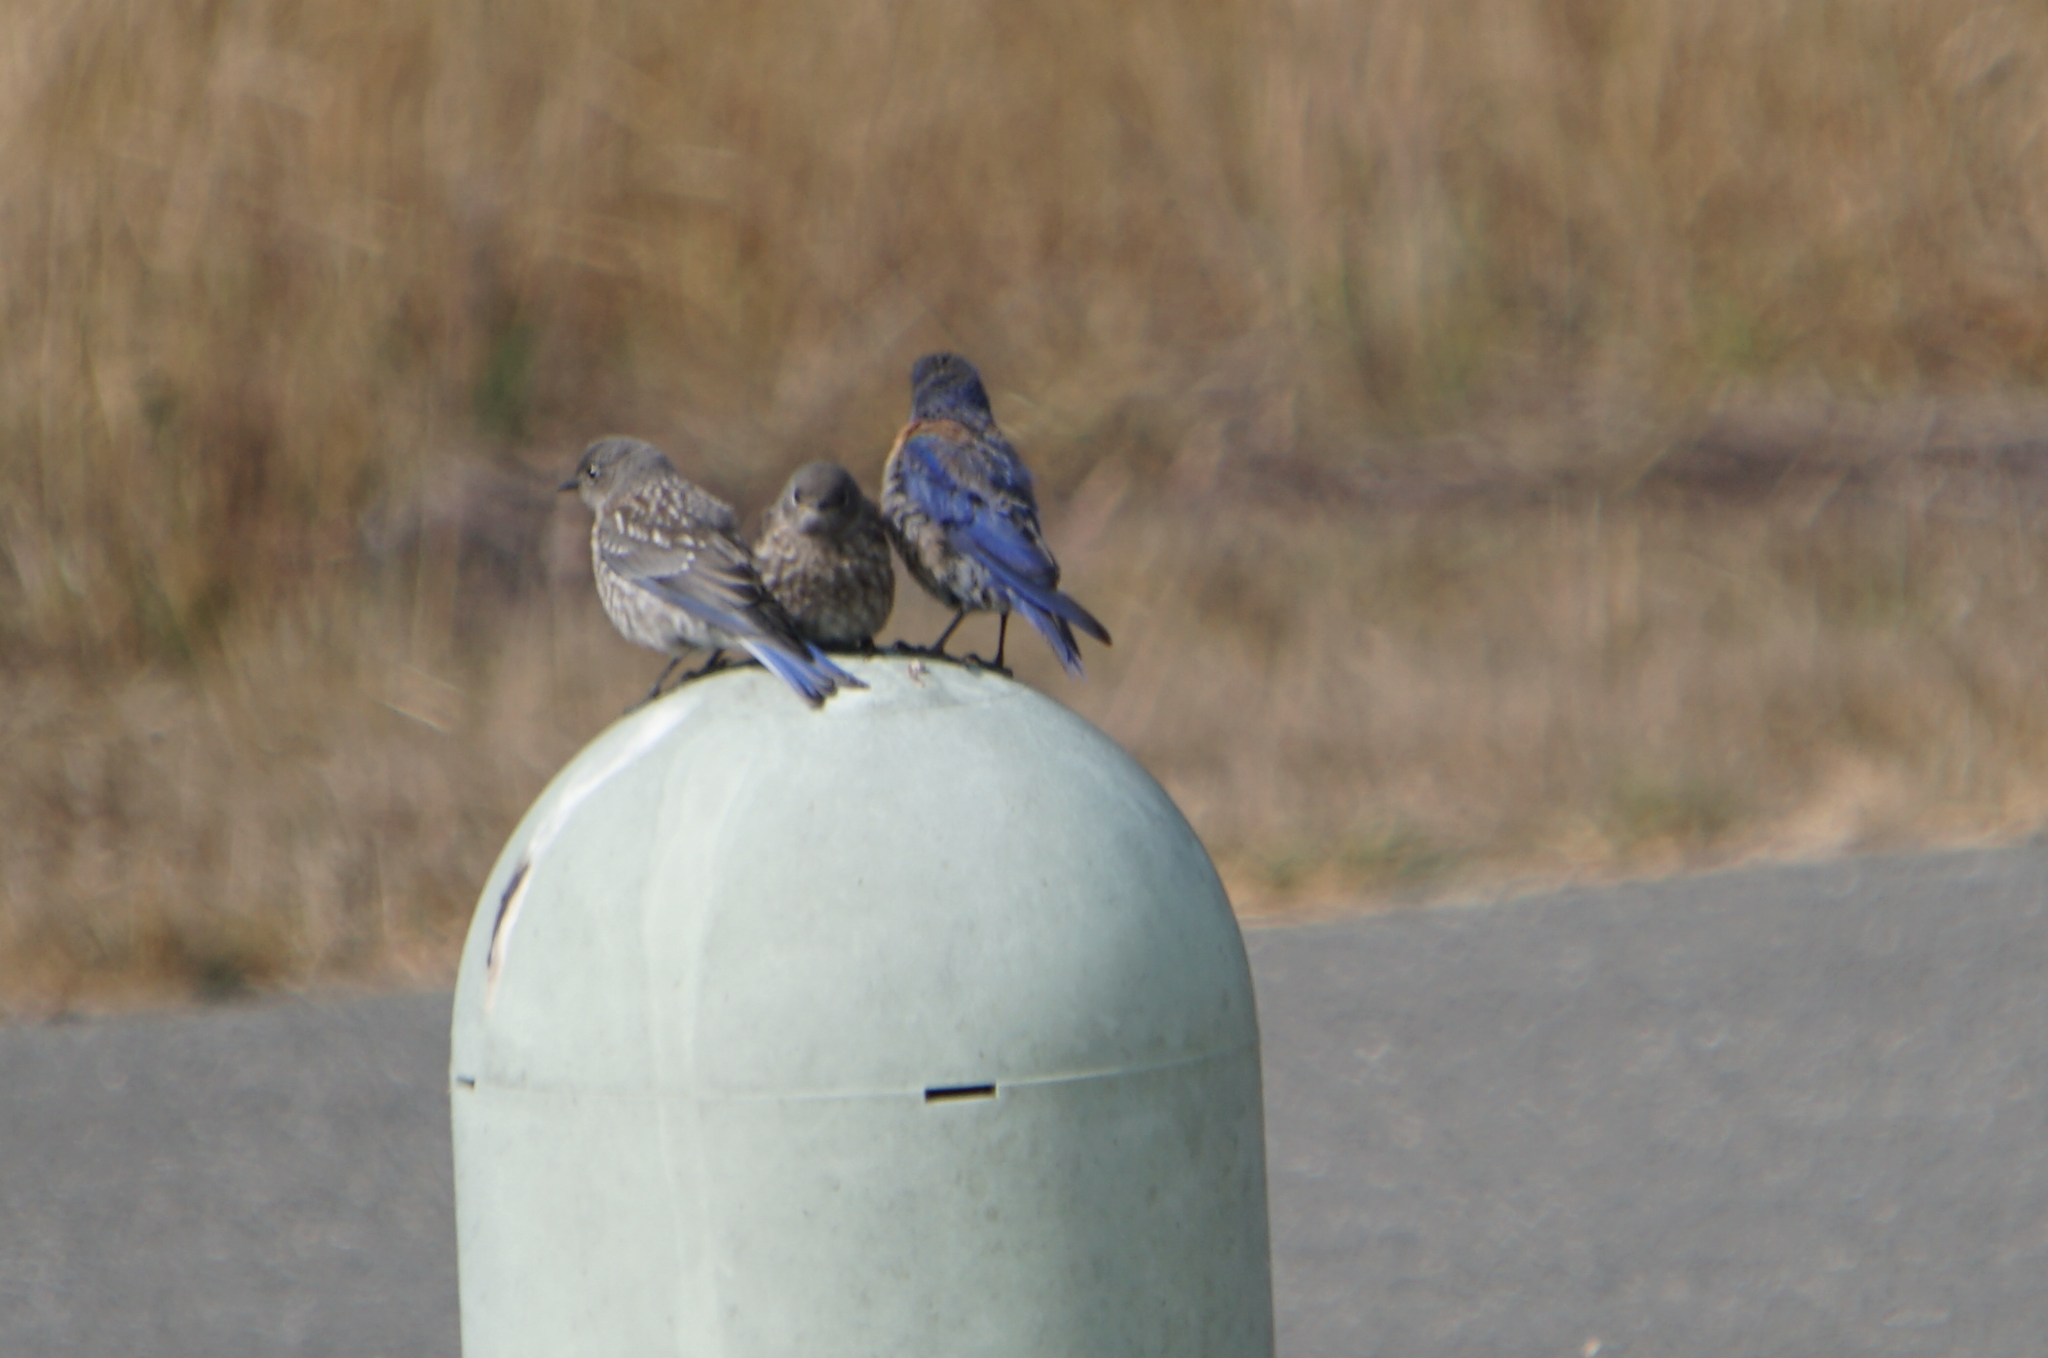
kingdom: Animalia
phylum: Chordata
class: Aves
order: Passeriformes
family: Turdidae
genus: Sialia
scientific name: Sialia mexicana
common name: Western bluebird
